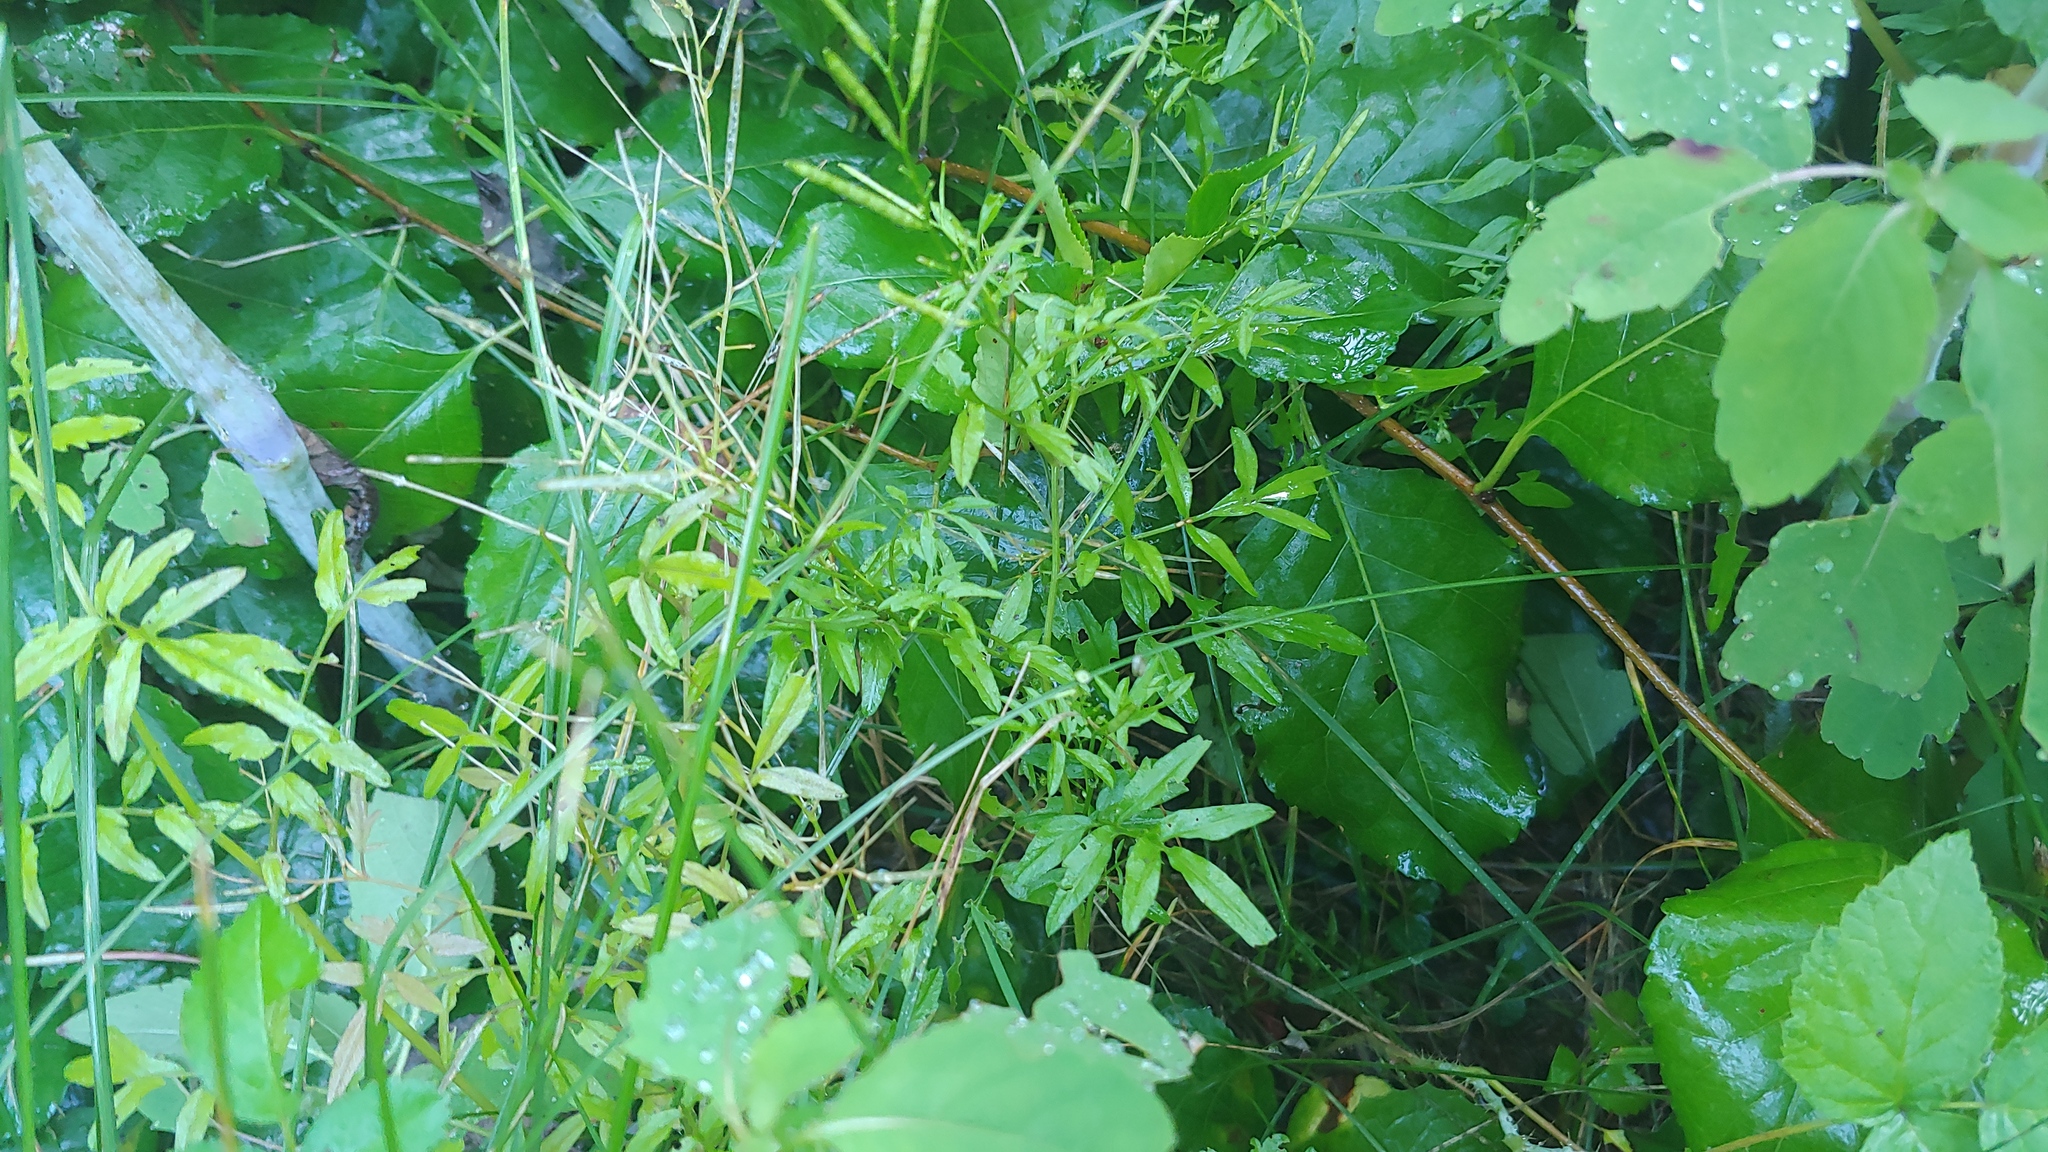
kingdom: Plantae
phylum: Tracheophyta
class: Magnoliopsida
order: Brassicales
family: Brassicaceae
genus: Cardamine
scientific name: Cardamine impatiens
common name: Narrow-leaved bitter-cress
